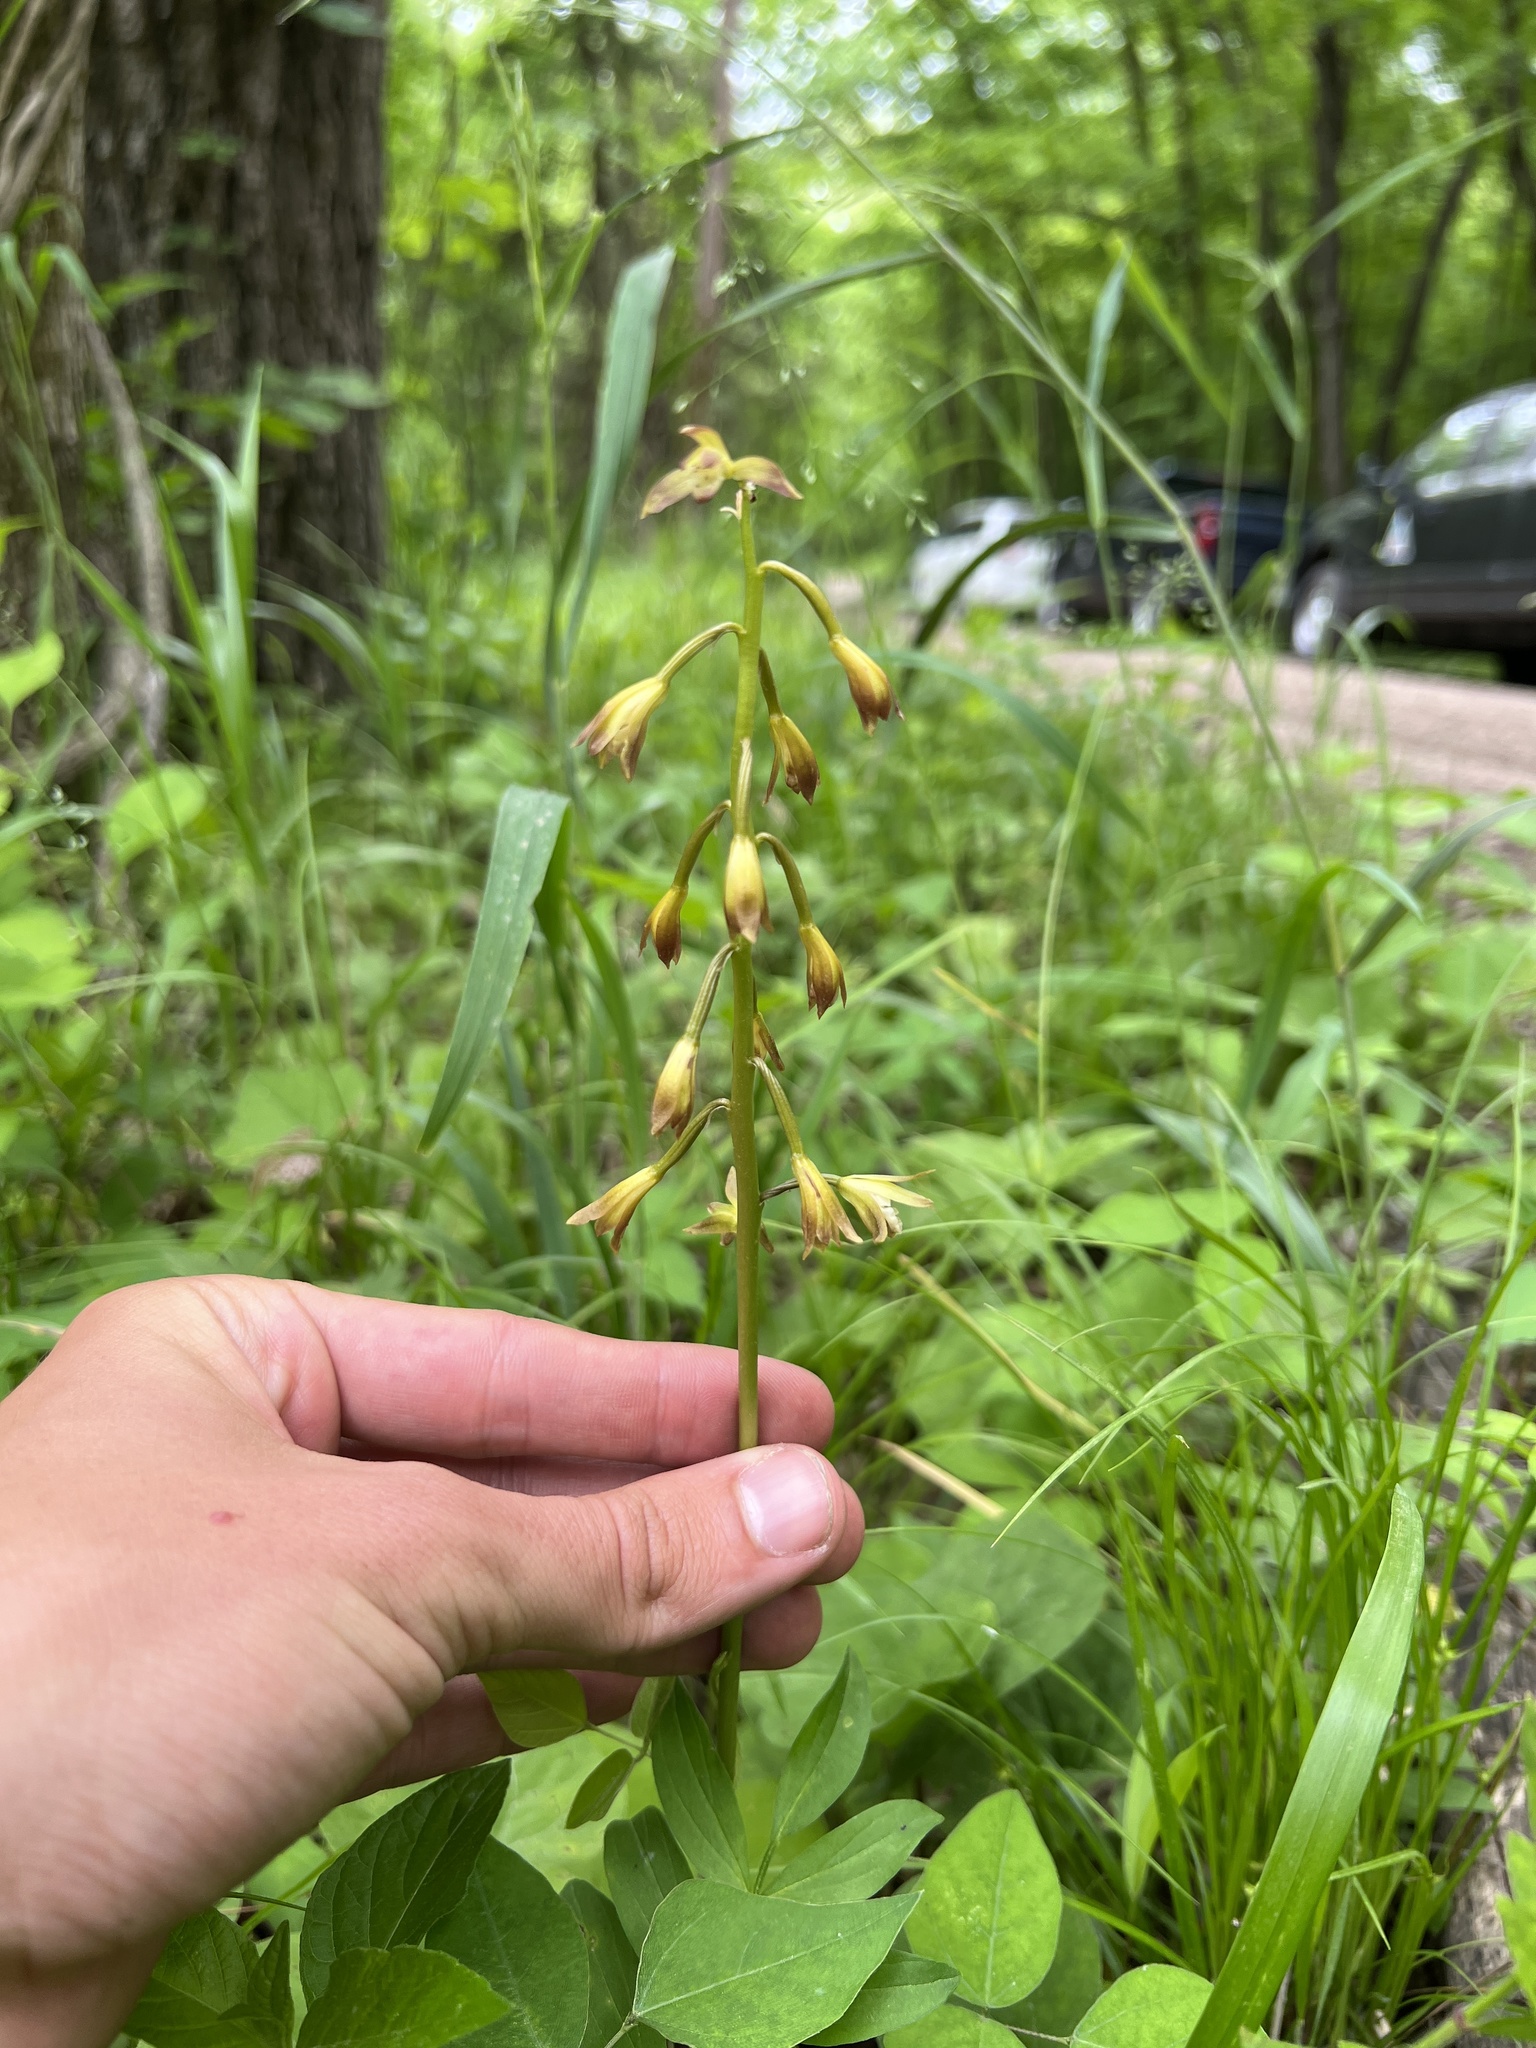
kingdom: Plantae
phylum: Tracheophyta
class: Liliopsida
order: Asparagales
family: Orchidaceae
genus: Aplectrum
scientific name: Aplectrum hyemale
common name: Adam-and-eve
